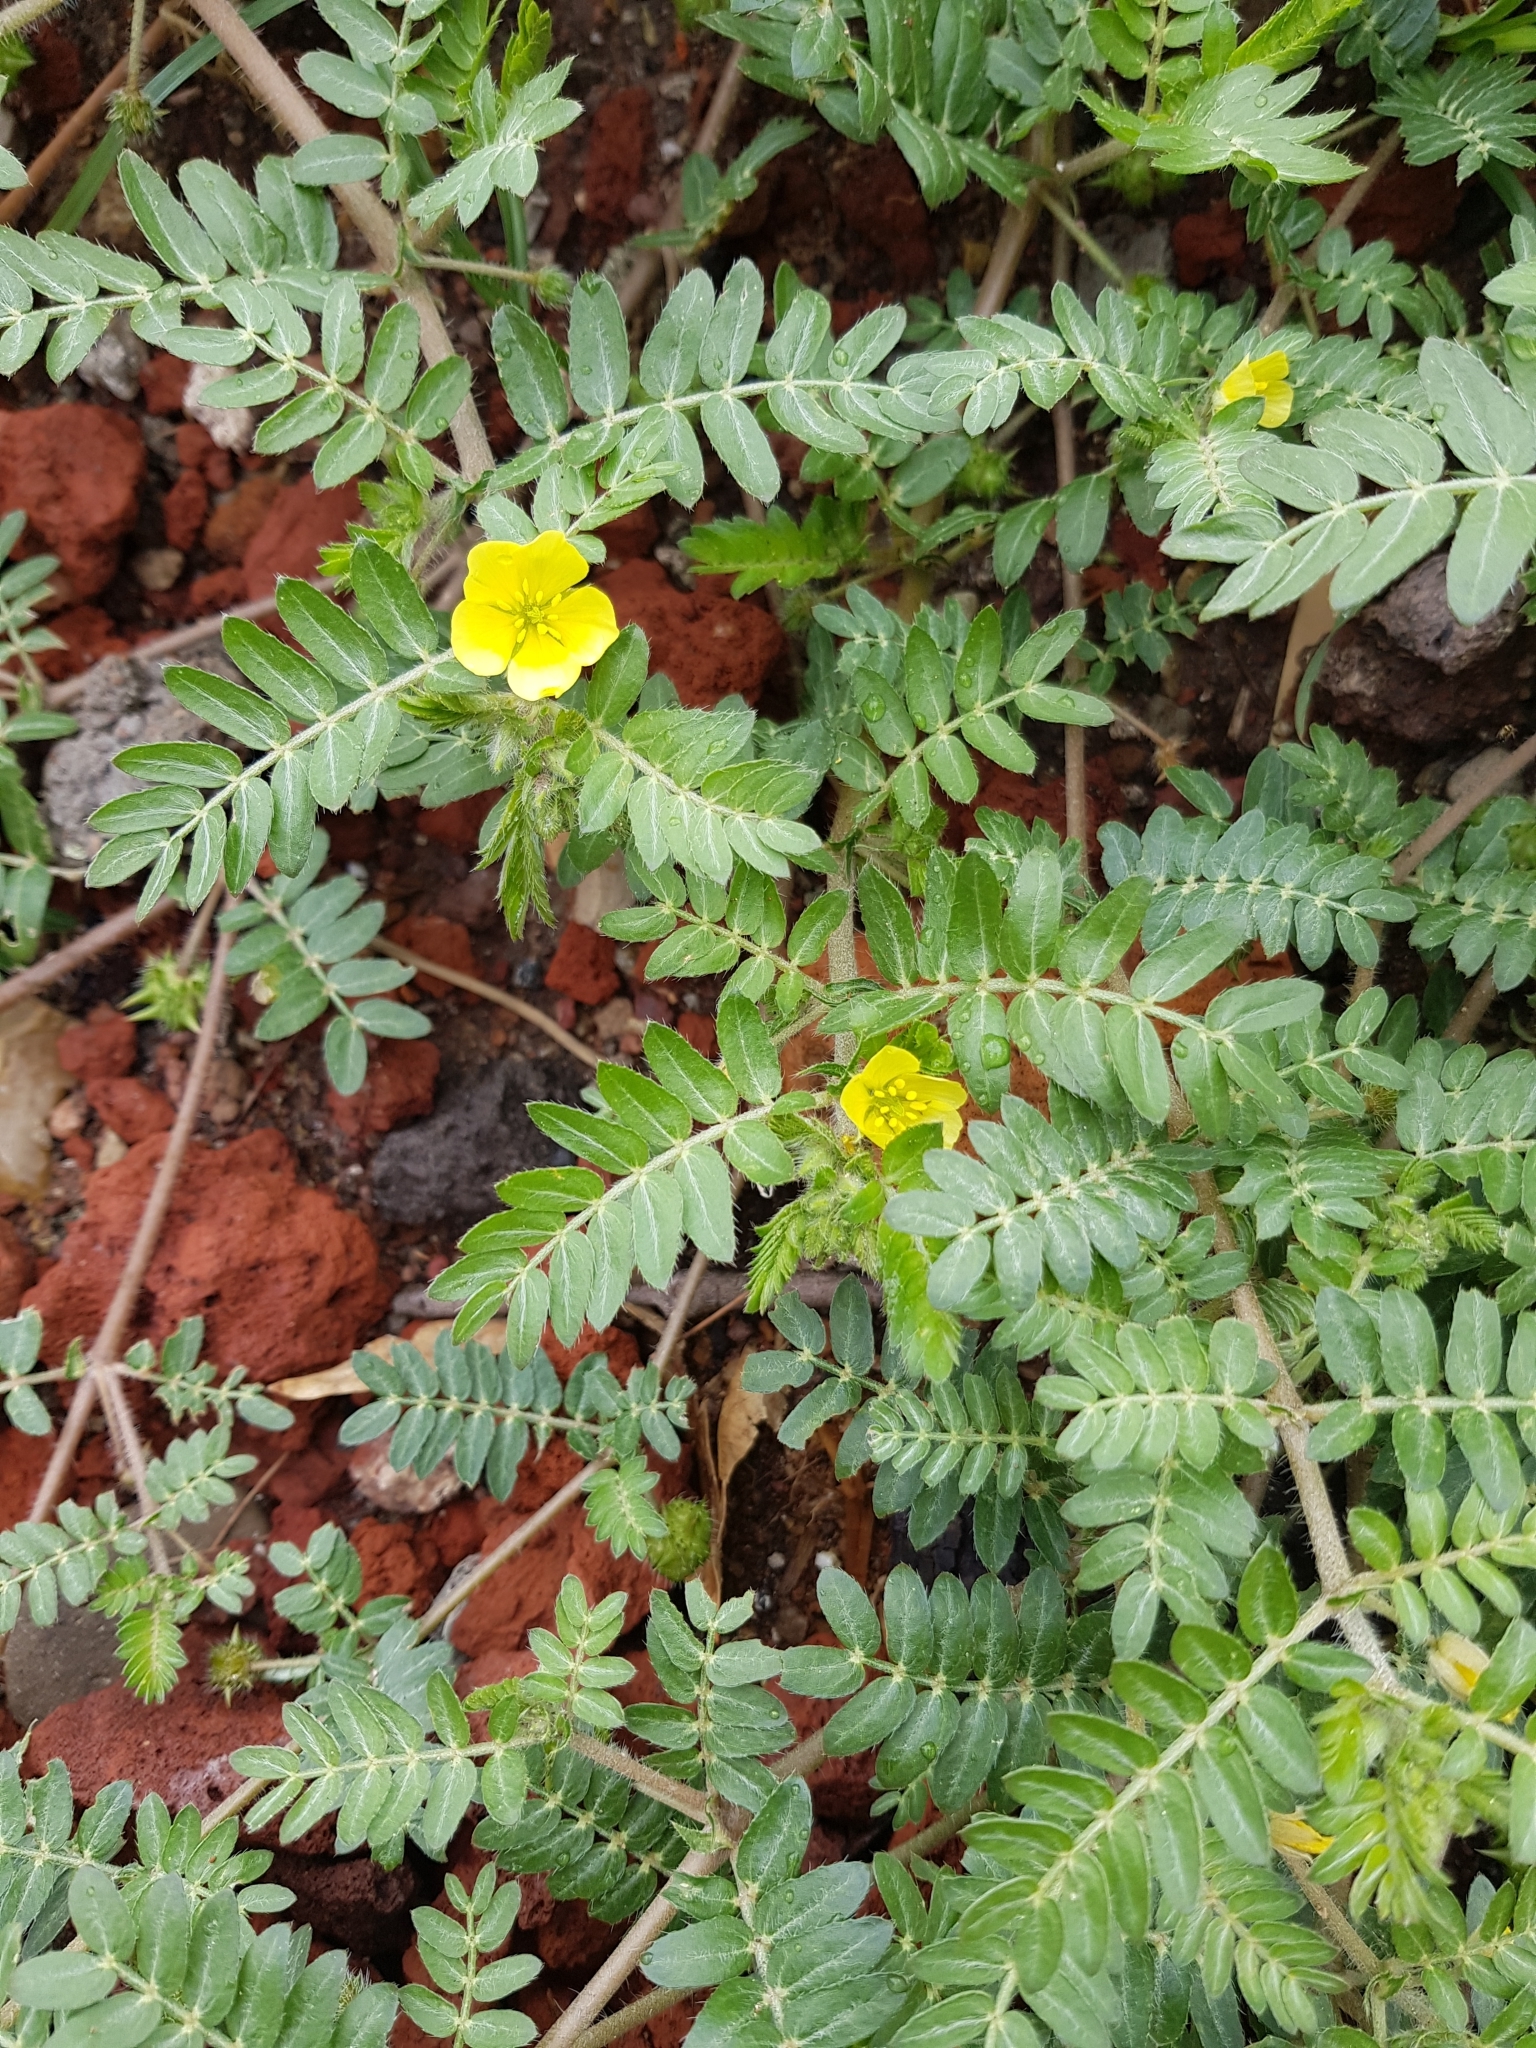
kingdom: Plantae
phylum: Tracheophyta
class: Magnoliopsida
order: Zygophyllales
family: Zygophyllaceae
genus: Tribulus
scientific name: Tribulus terrestris
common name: Puncturevine
